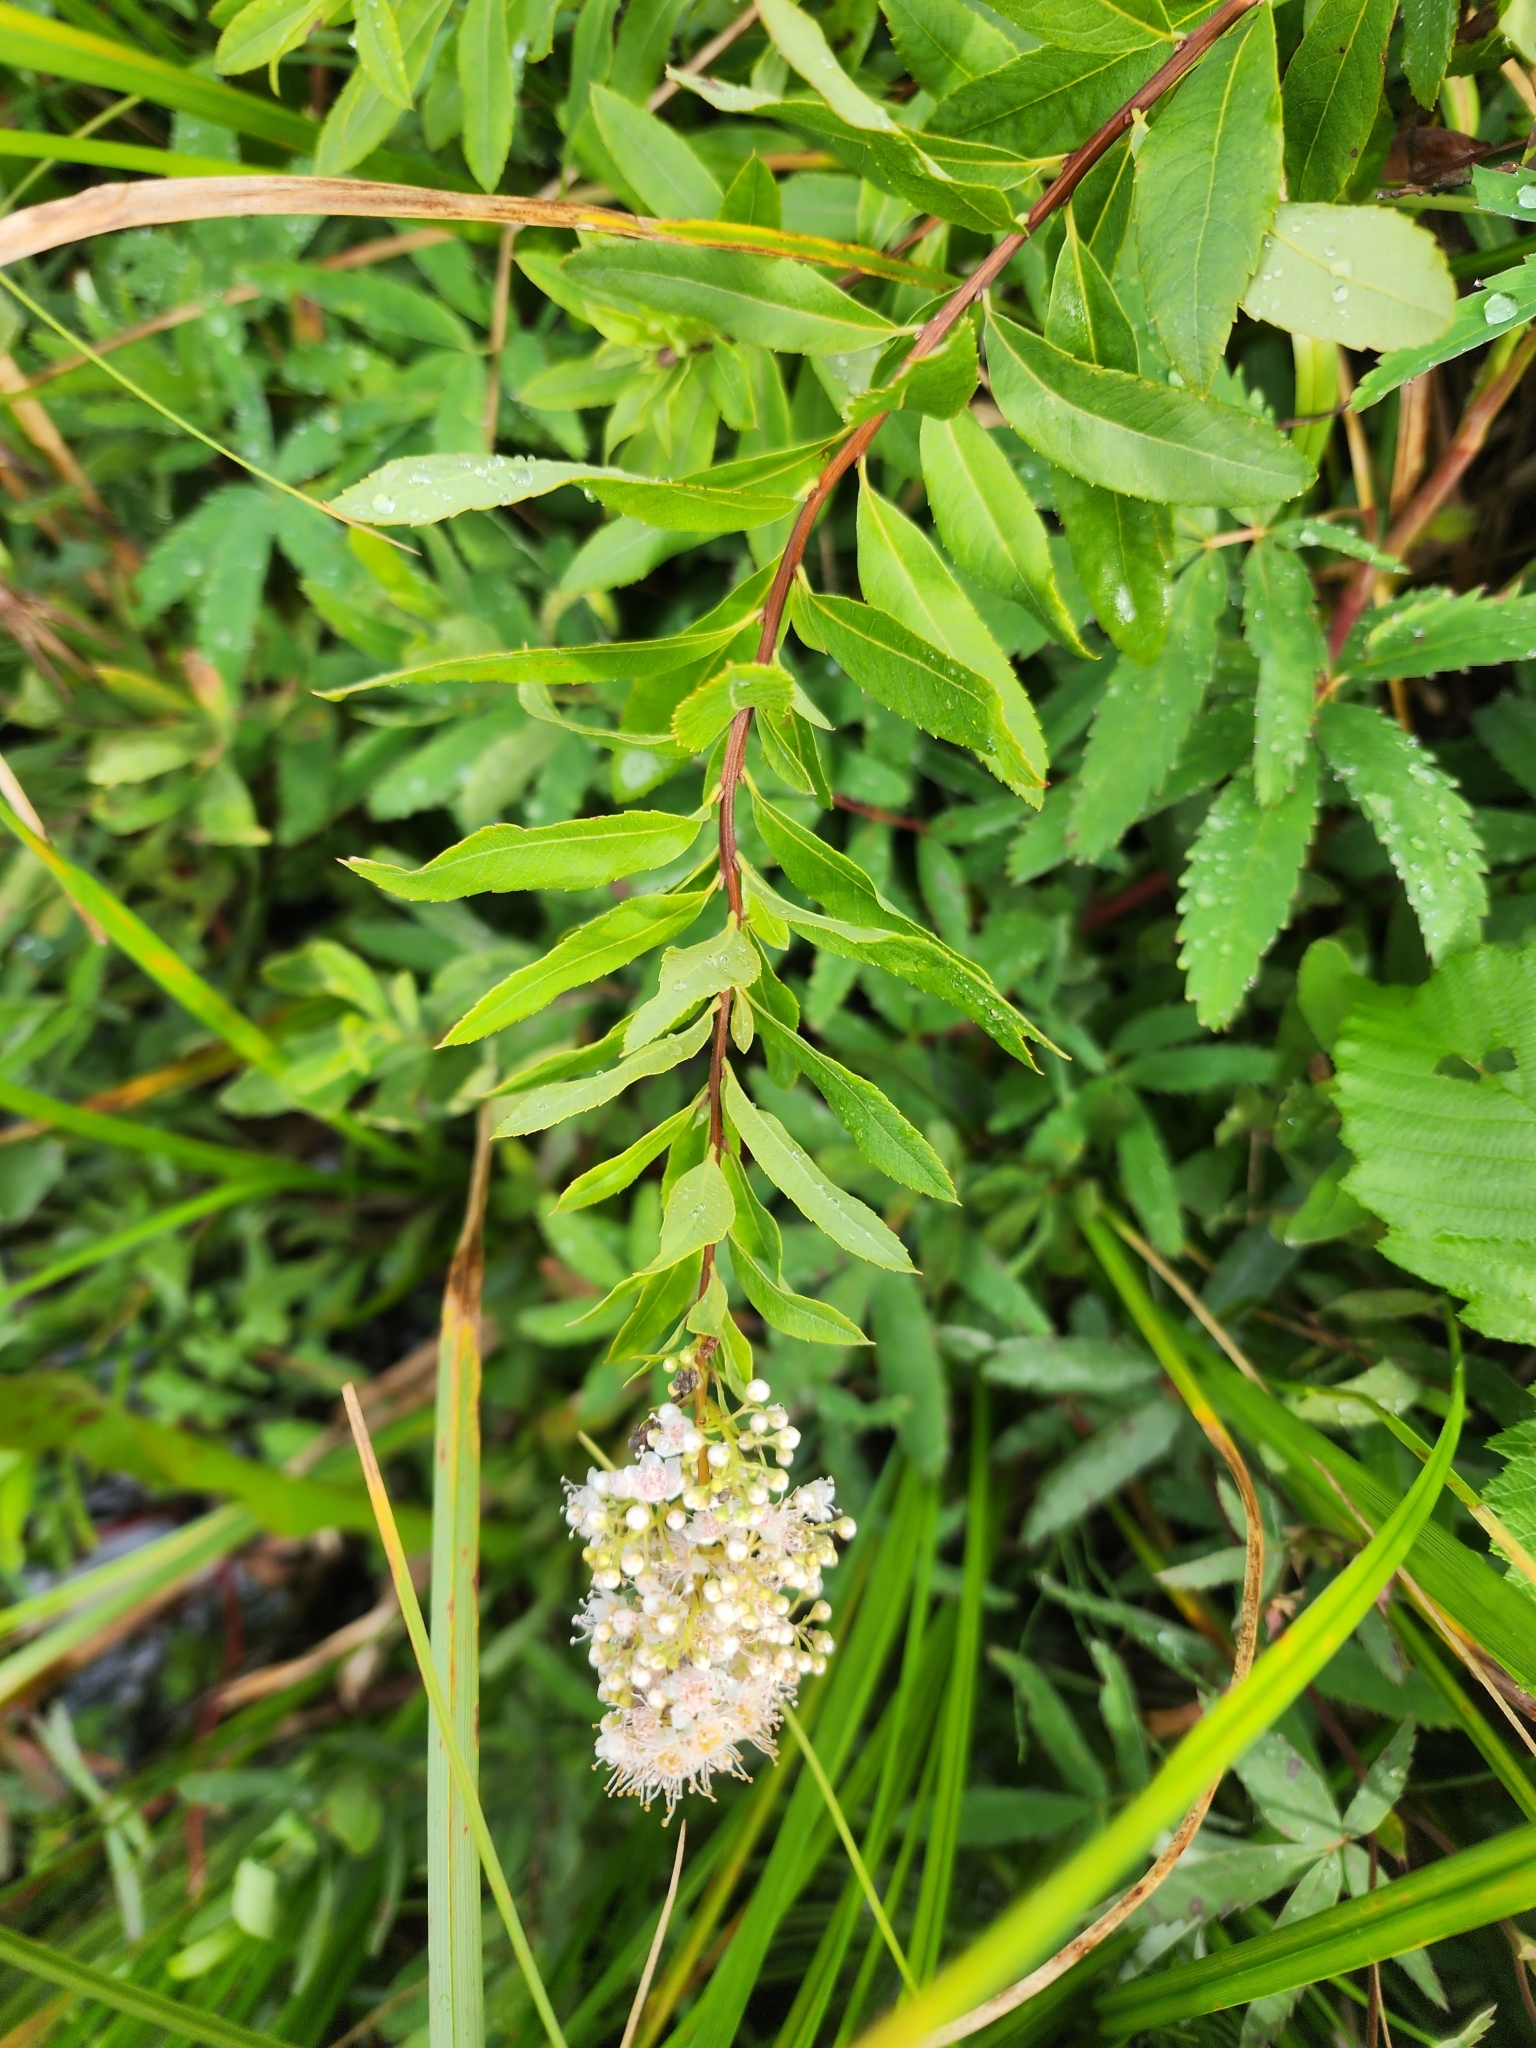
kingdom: Plantae
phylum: Tracheophyta
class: Magnoliopsida
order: Rosales
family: Rosaceae
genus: Spiraea
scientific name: Spiraea alba
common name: Pale bridewort
